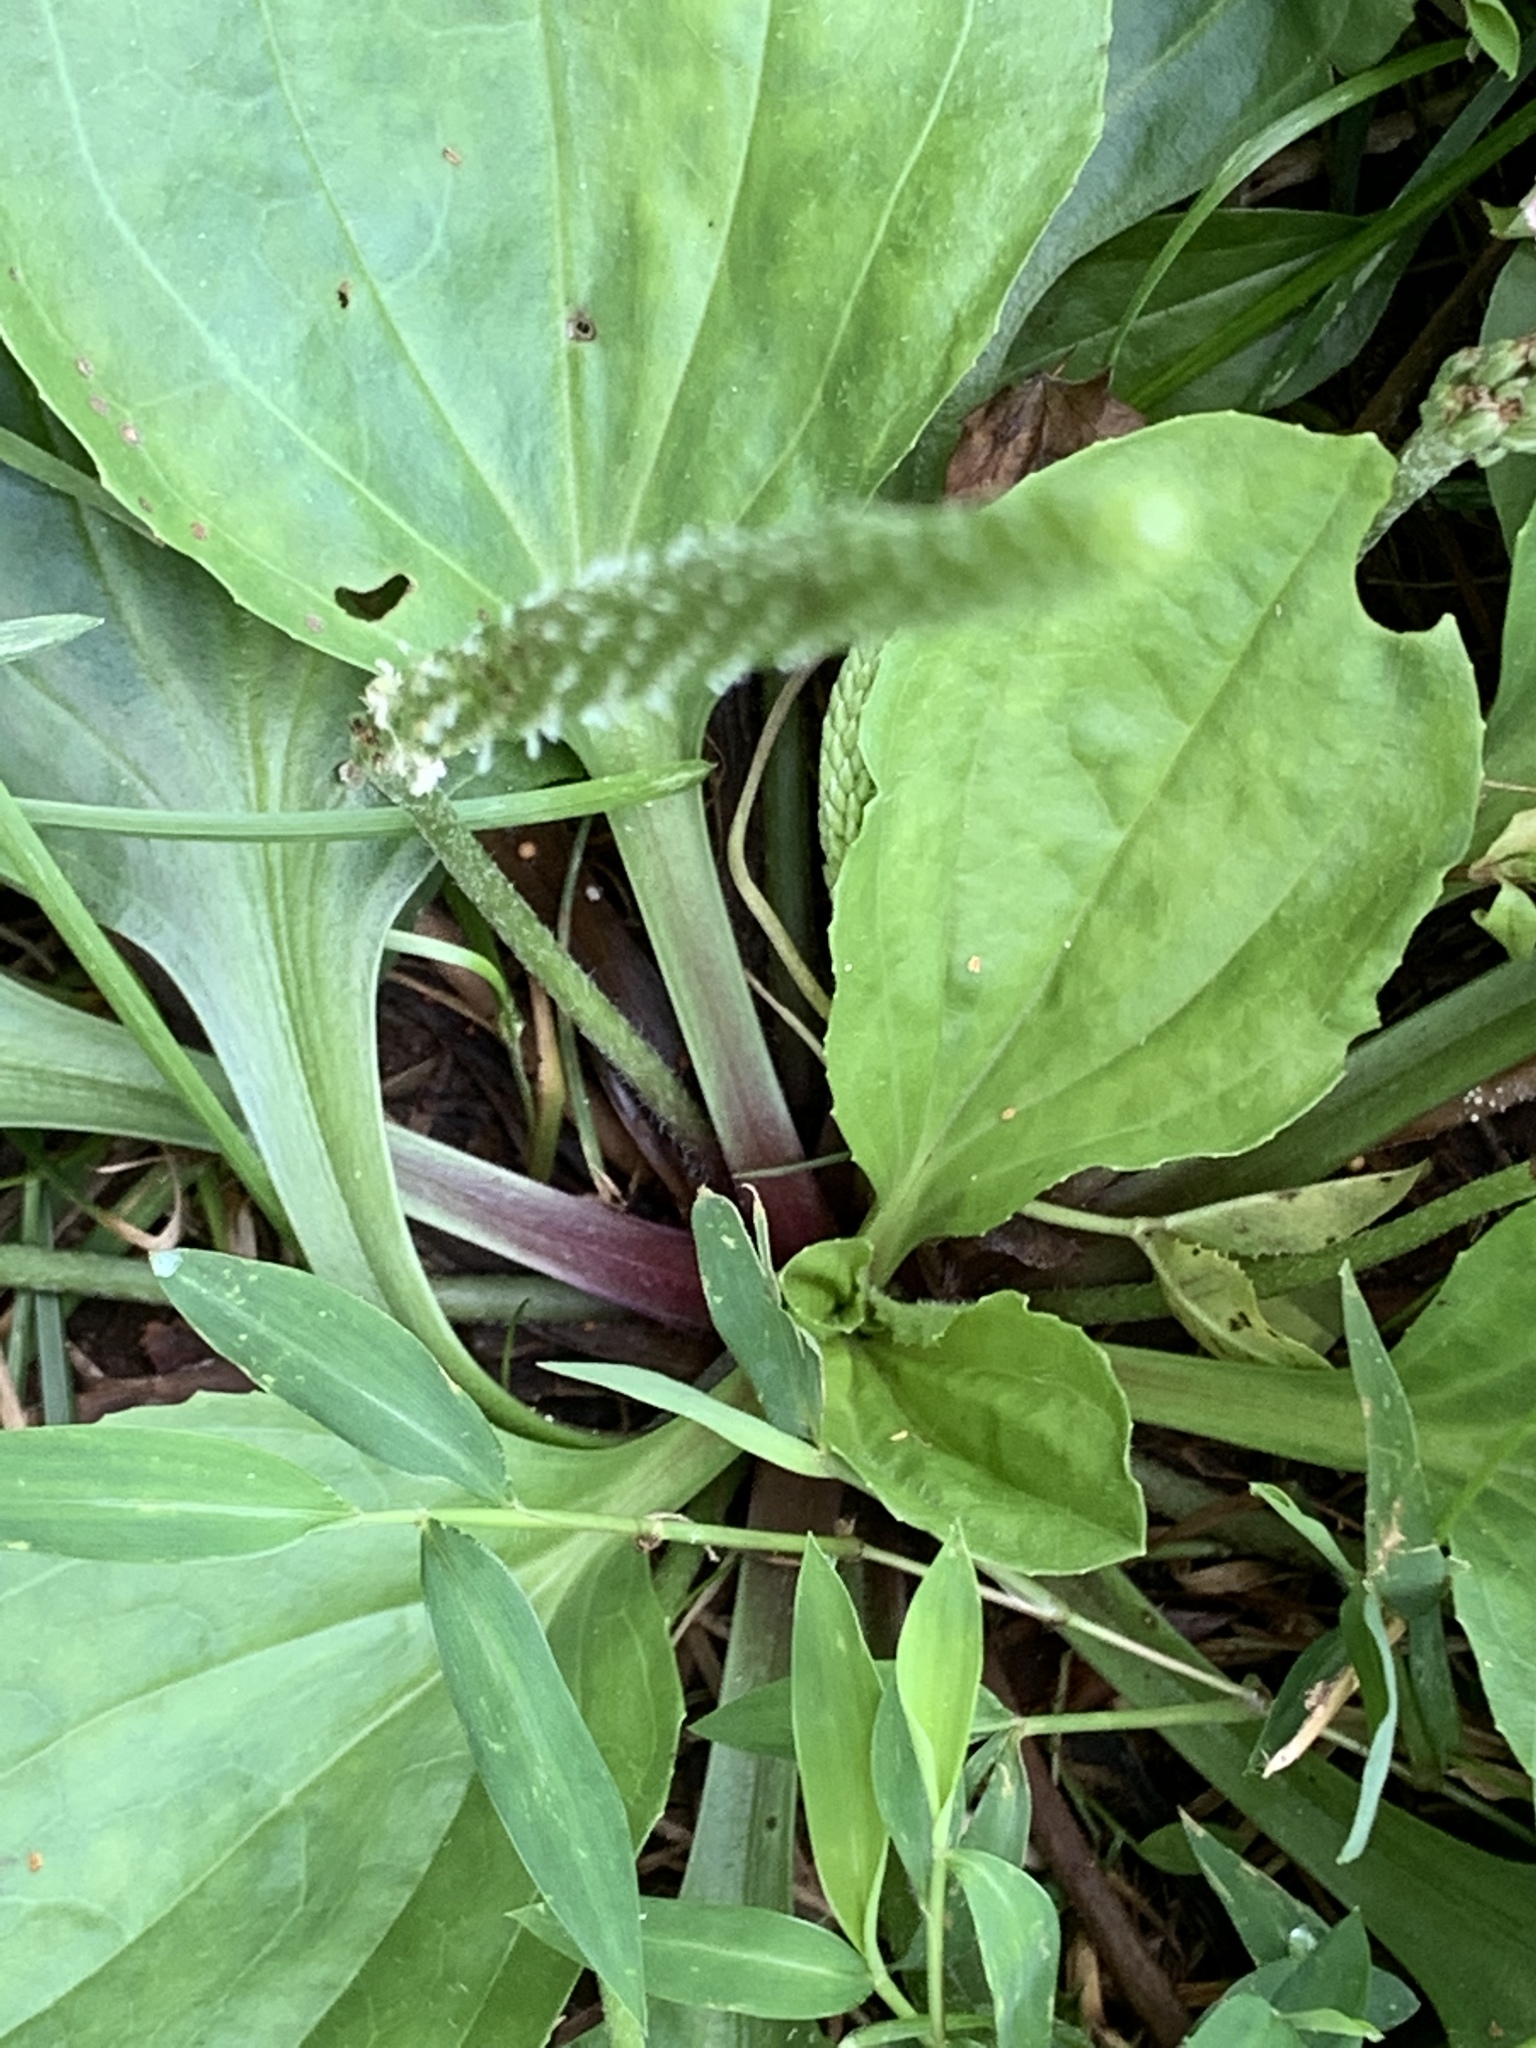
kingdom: Plantae
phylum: Tracheophyta
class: Magnoliopsida
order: Lamiales
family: Plantaginaceae
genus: Plantago
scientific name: Plantago rugelii
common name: American plantain
